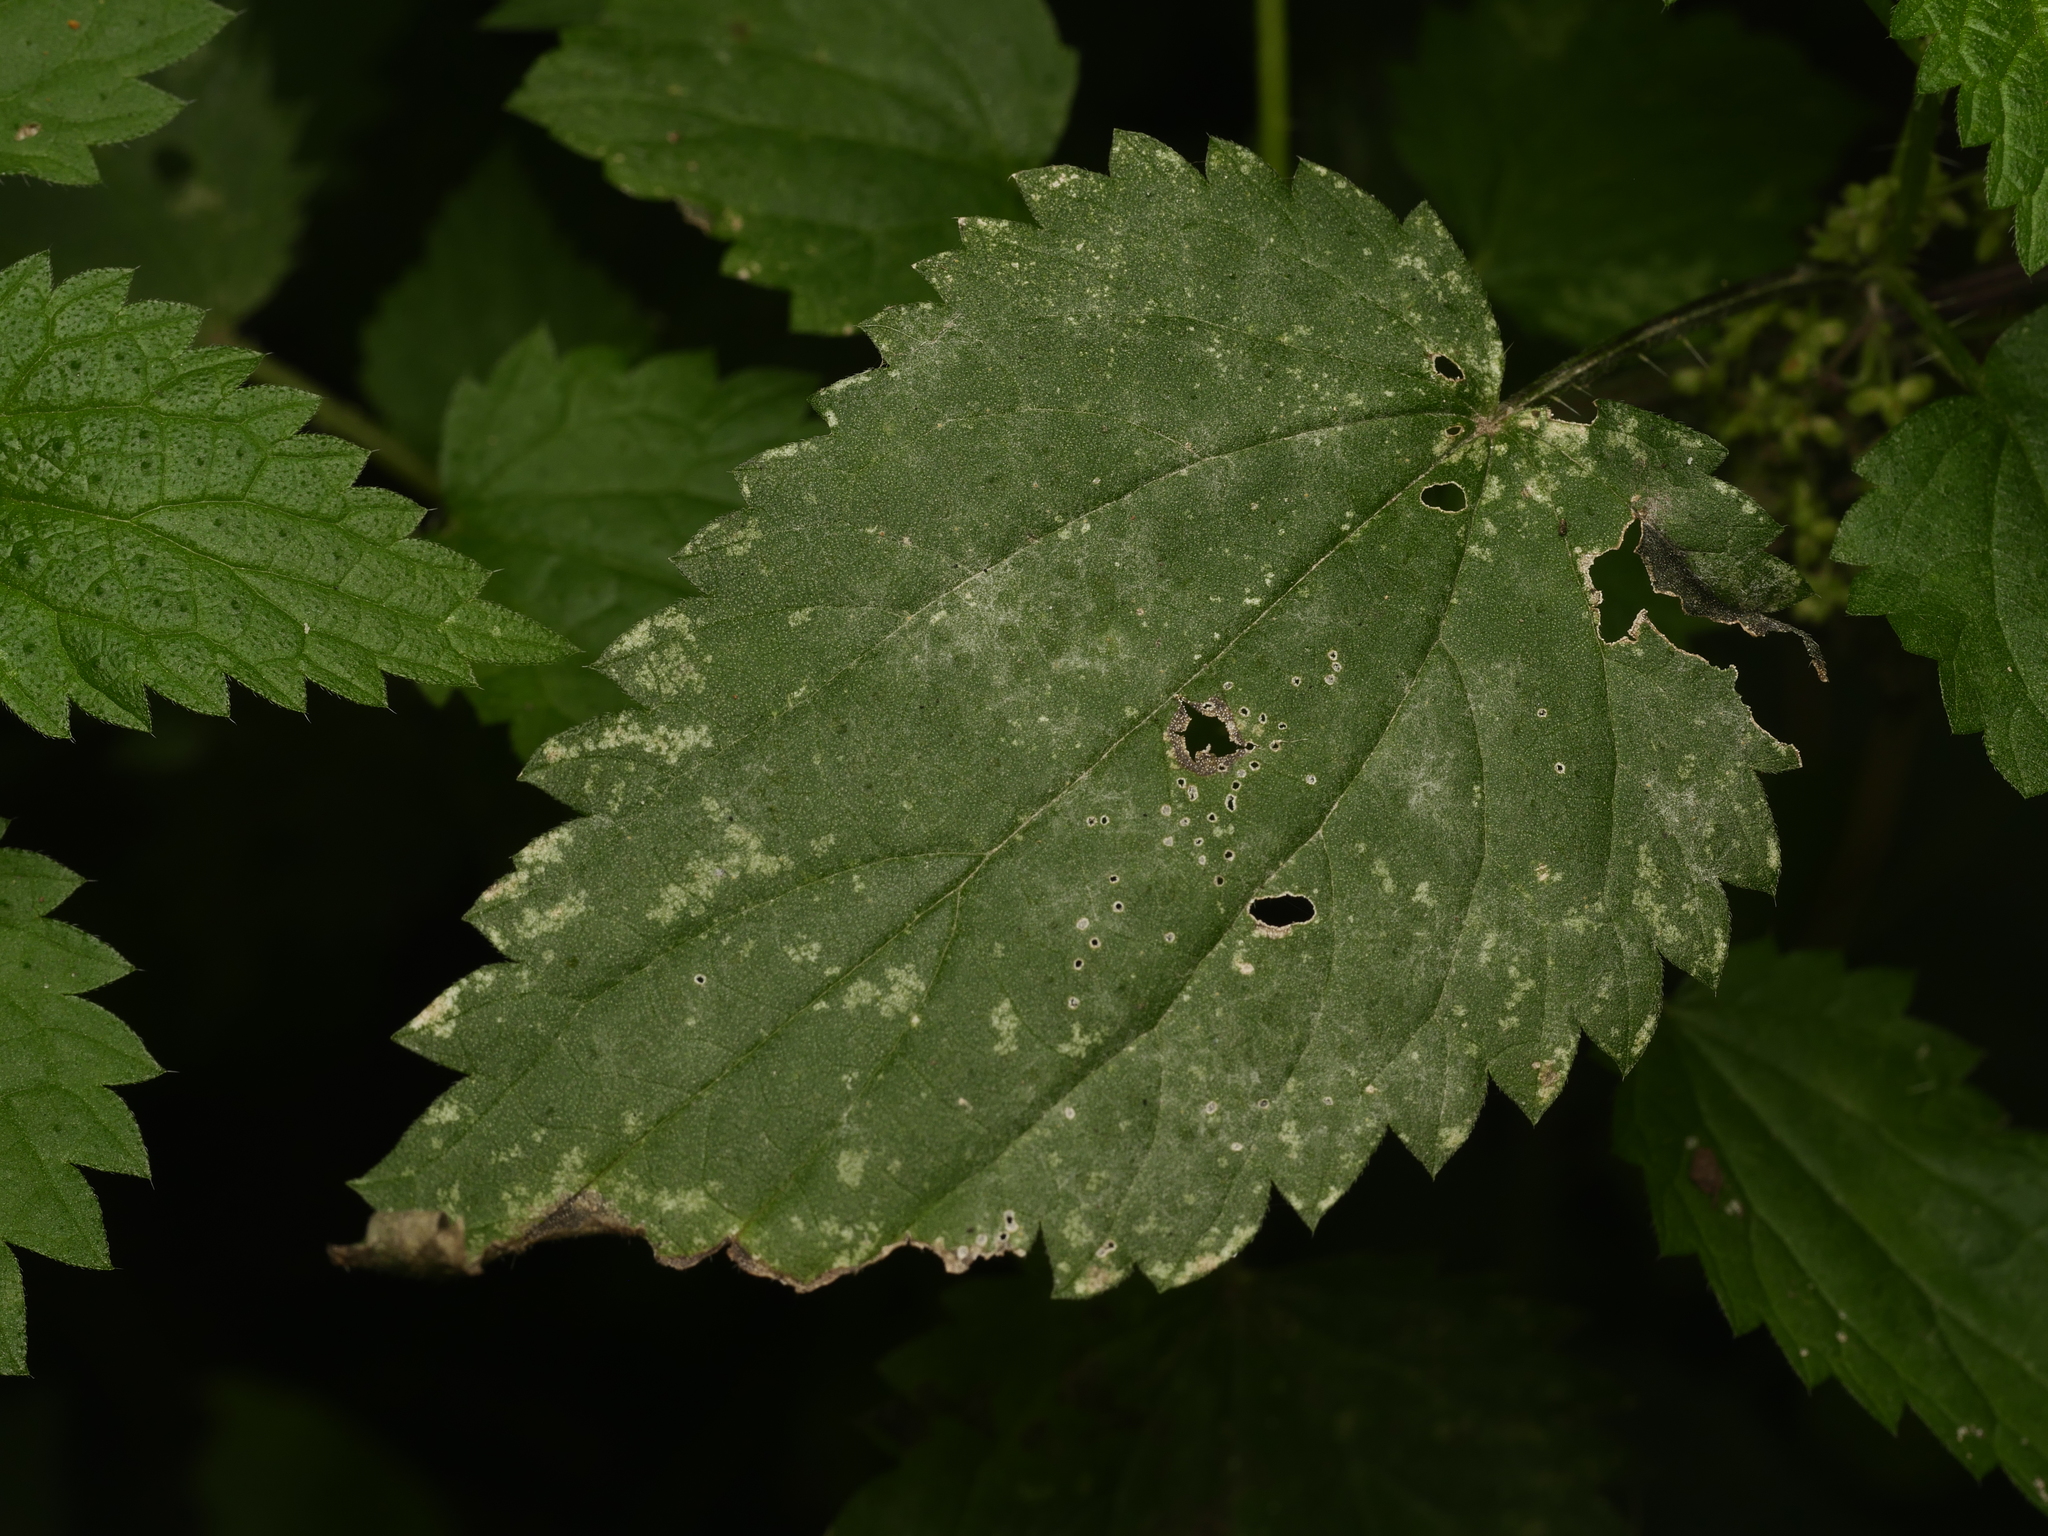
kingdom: Plantae
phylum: Tracheophyta
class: Magnoliopsida
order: Rosales
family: Urticaceae
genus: Urtica
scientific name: Urtica dioica
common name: Common nettle
